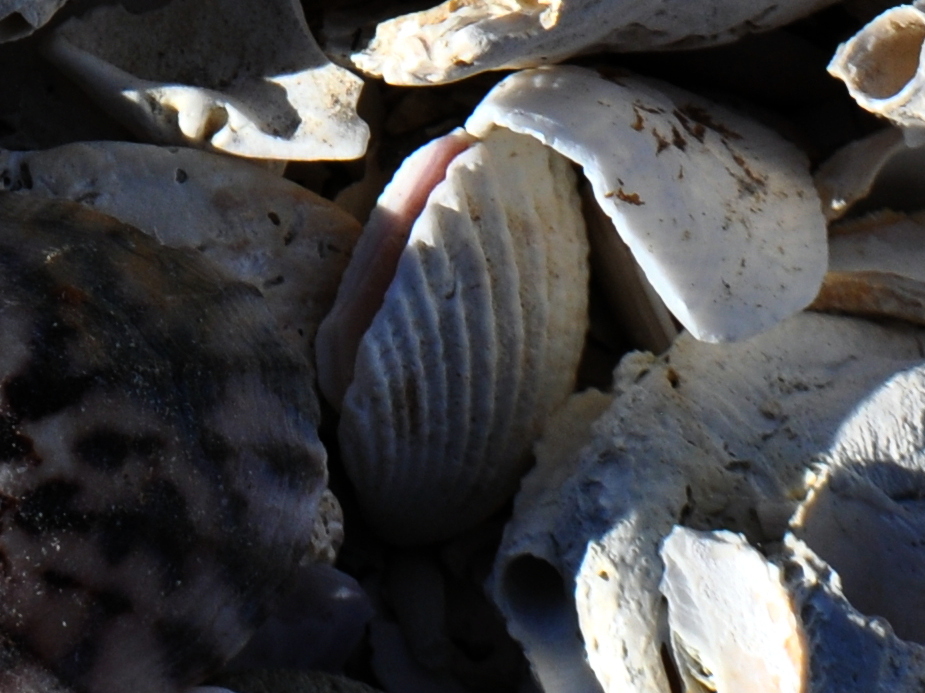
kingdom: Animalia
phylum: Mollusca
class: Bivalvia
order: Carditida
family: Carditidae
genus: Purpurocardia
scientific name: Purpurocardia purpurata
